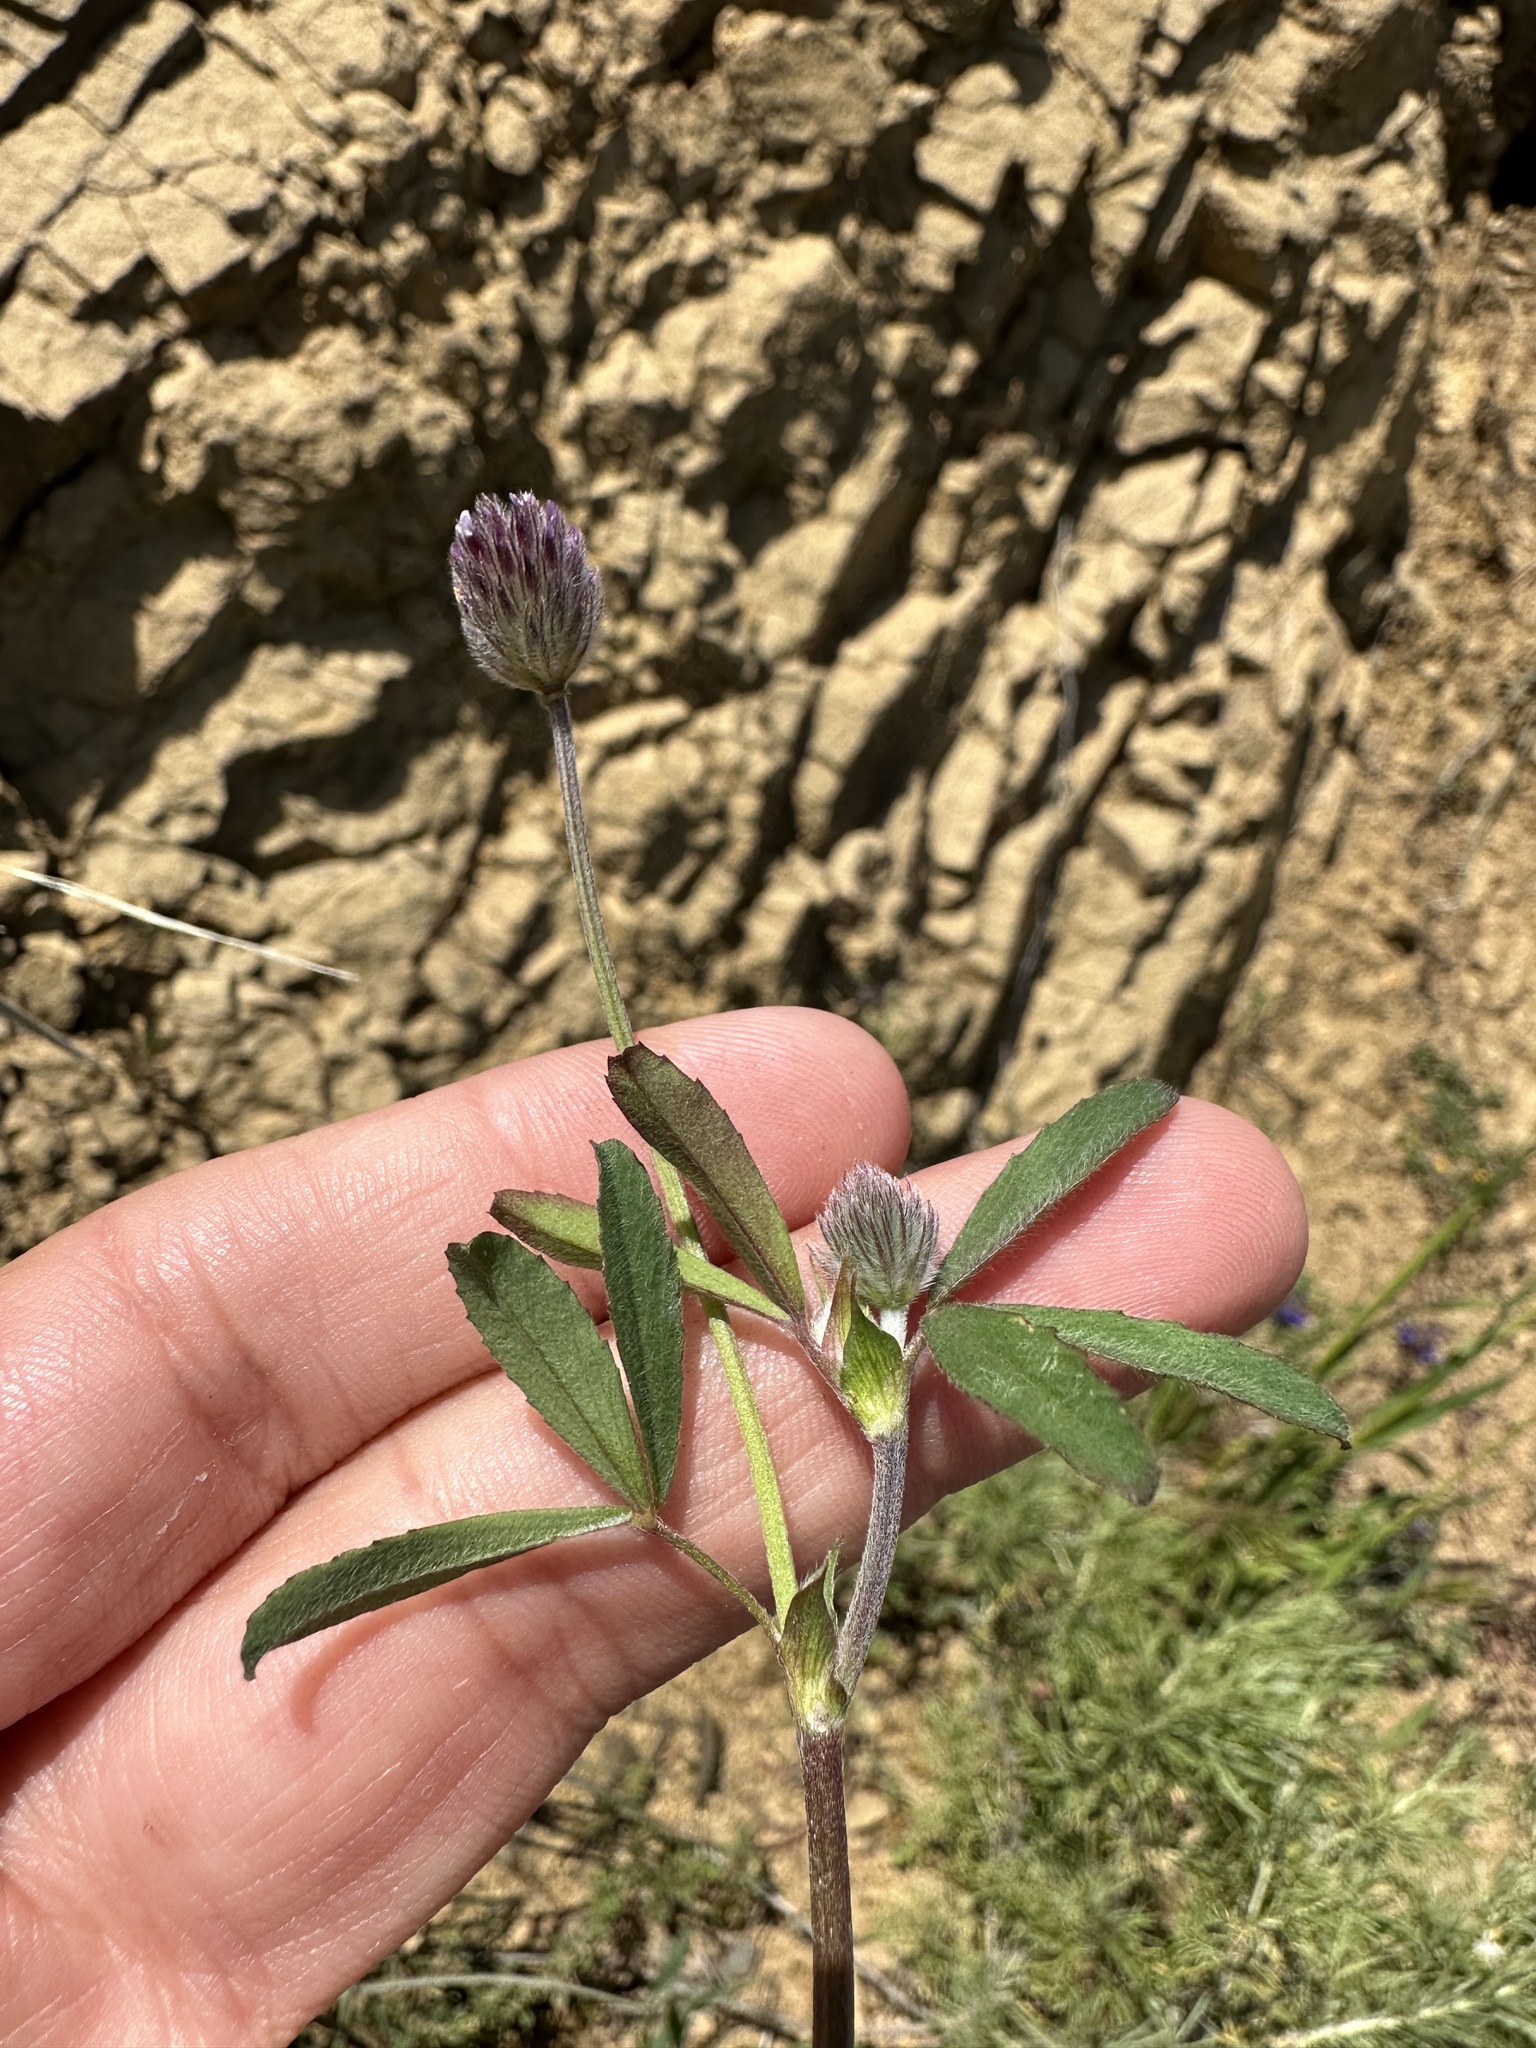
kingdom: Plantae
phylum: Tracheophyta
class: Magnoliopsida
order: Fabales
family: Fabaceae
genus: Trifolium
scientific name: Trifolium albopurpureum
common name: Rancheria clover
